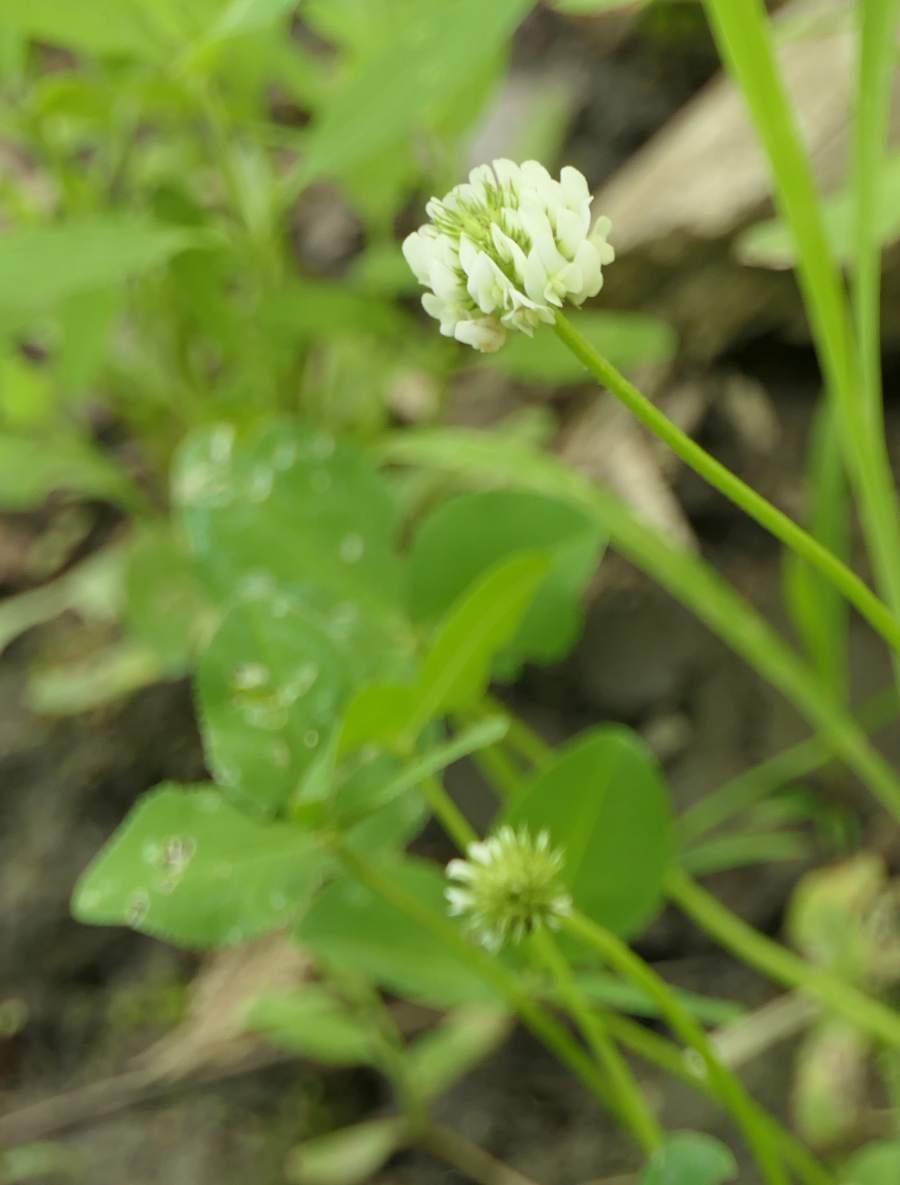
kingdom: Plantae
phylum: Tracheophyta
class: Magnoliopsida
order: Fabales
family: Fabaceae
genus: Trifolium
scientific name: Trifolium repens
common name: White clover
